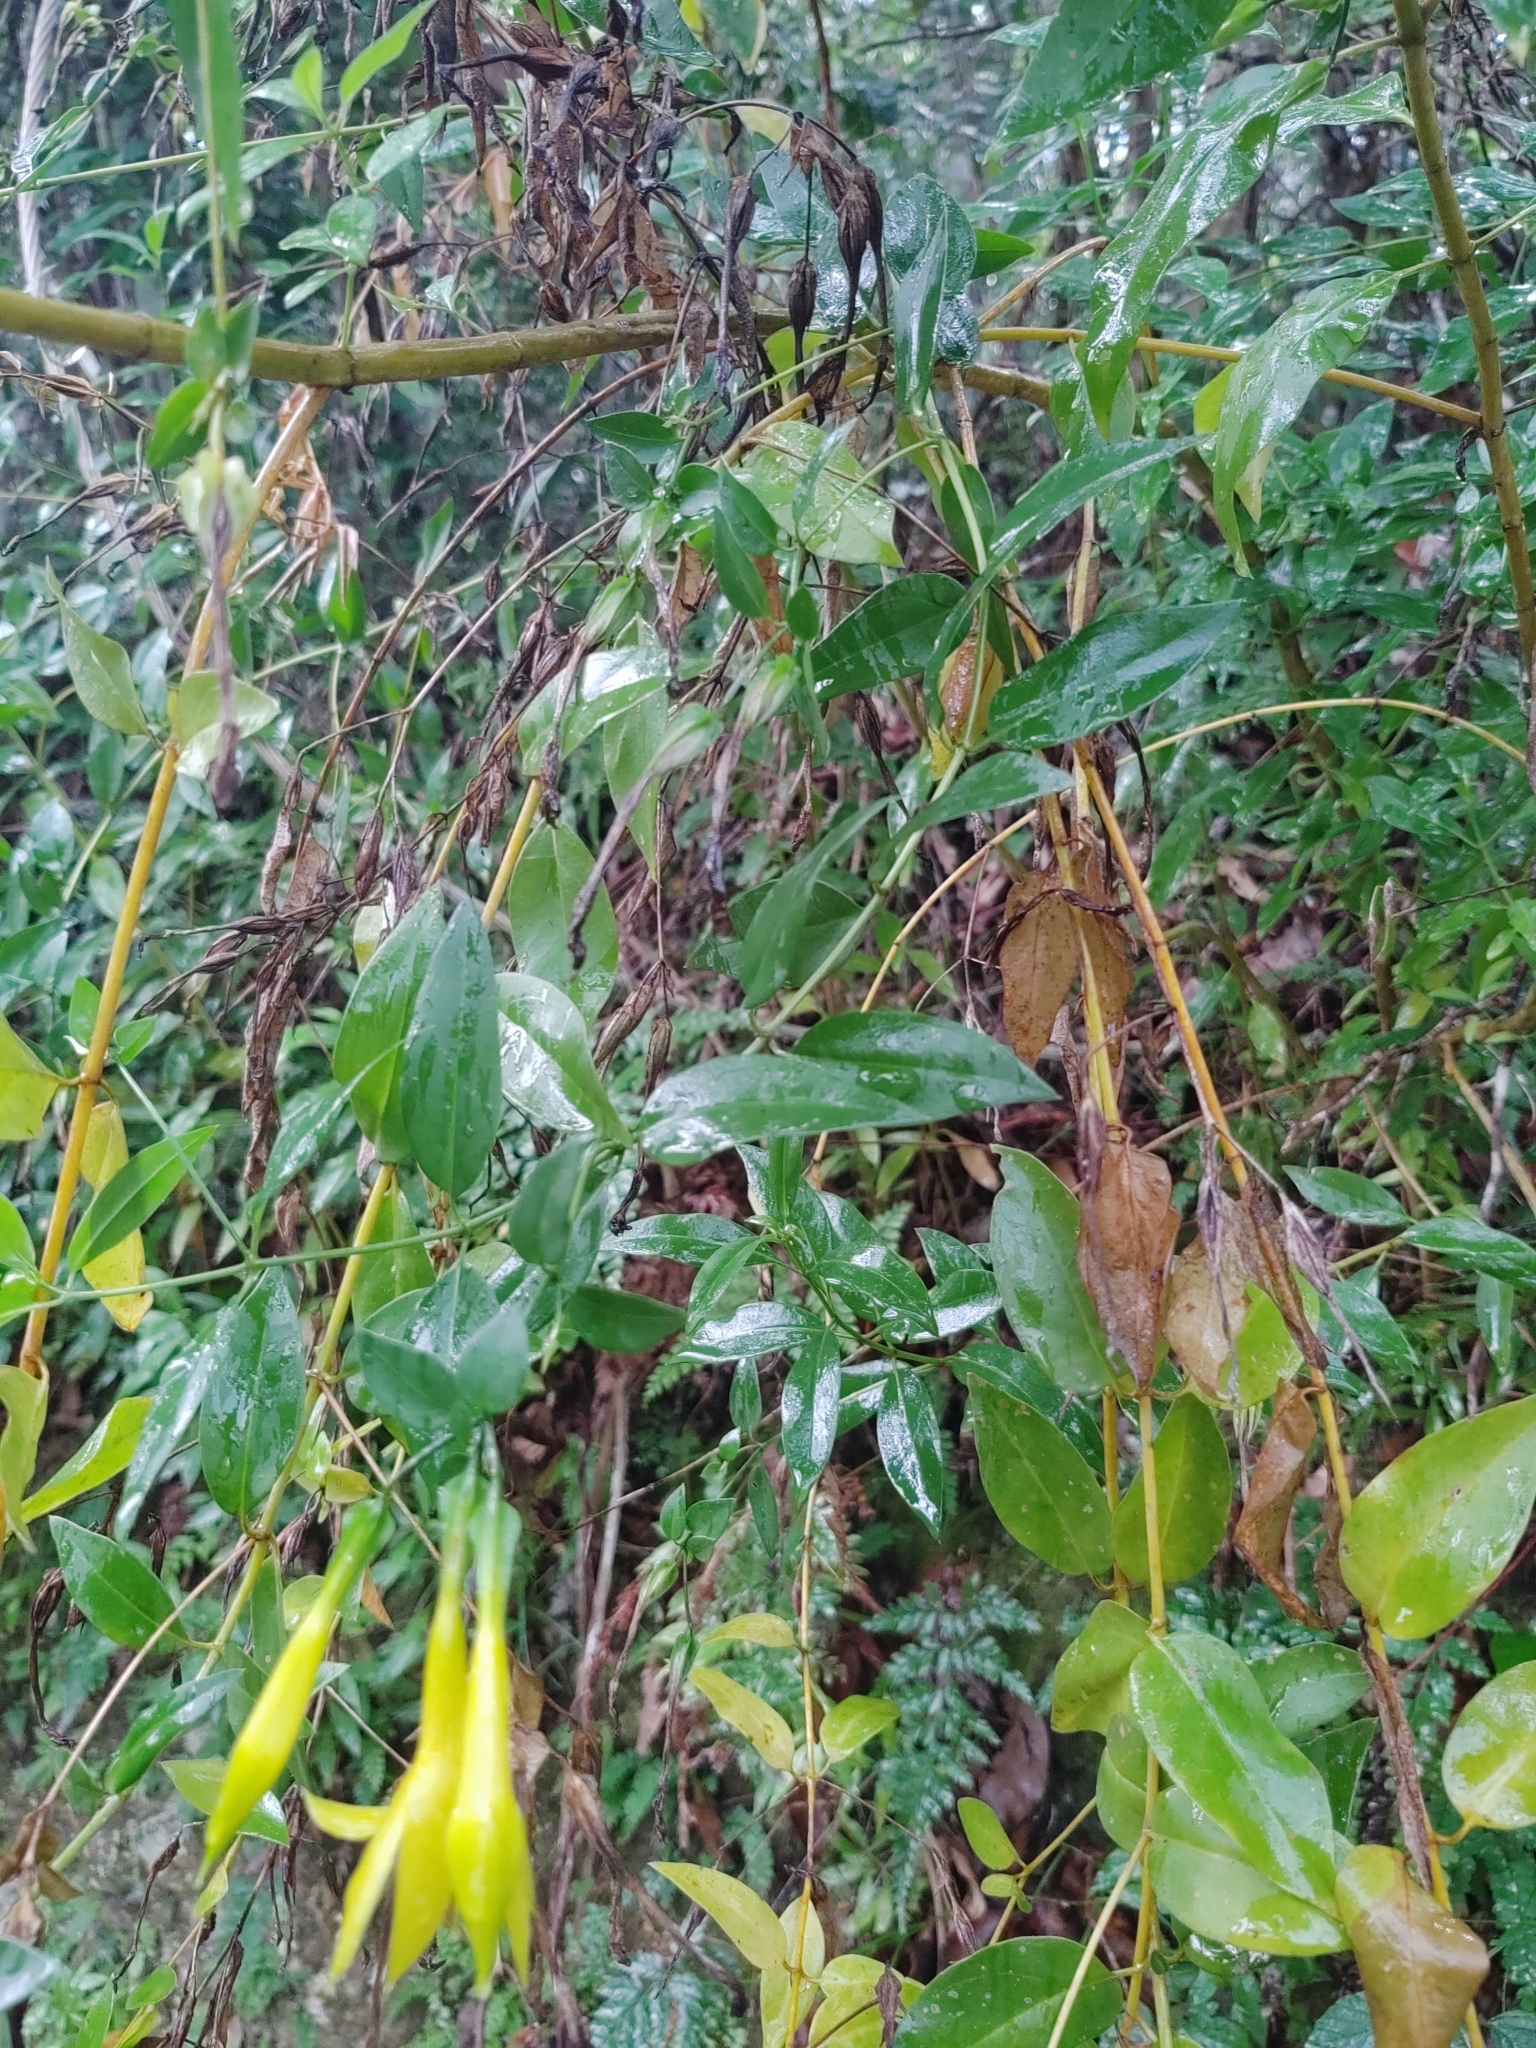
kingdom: Plantae
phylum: Tracheophyta
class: Magnoliopsida
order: Gentianales
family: Gentianaceae
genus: Lisianthus
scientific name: Lisianthus longifolius
